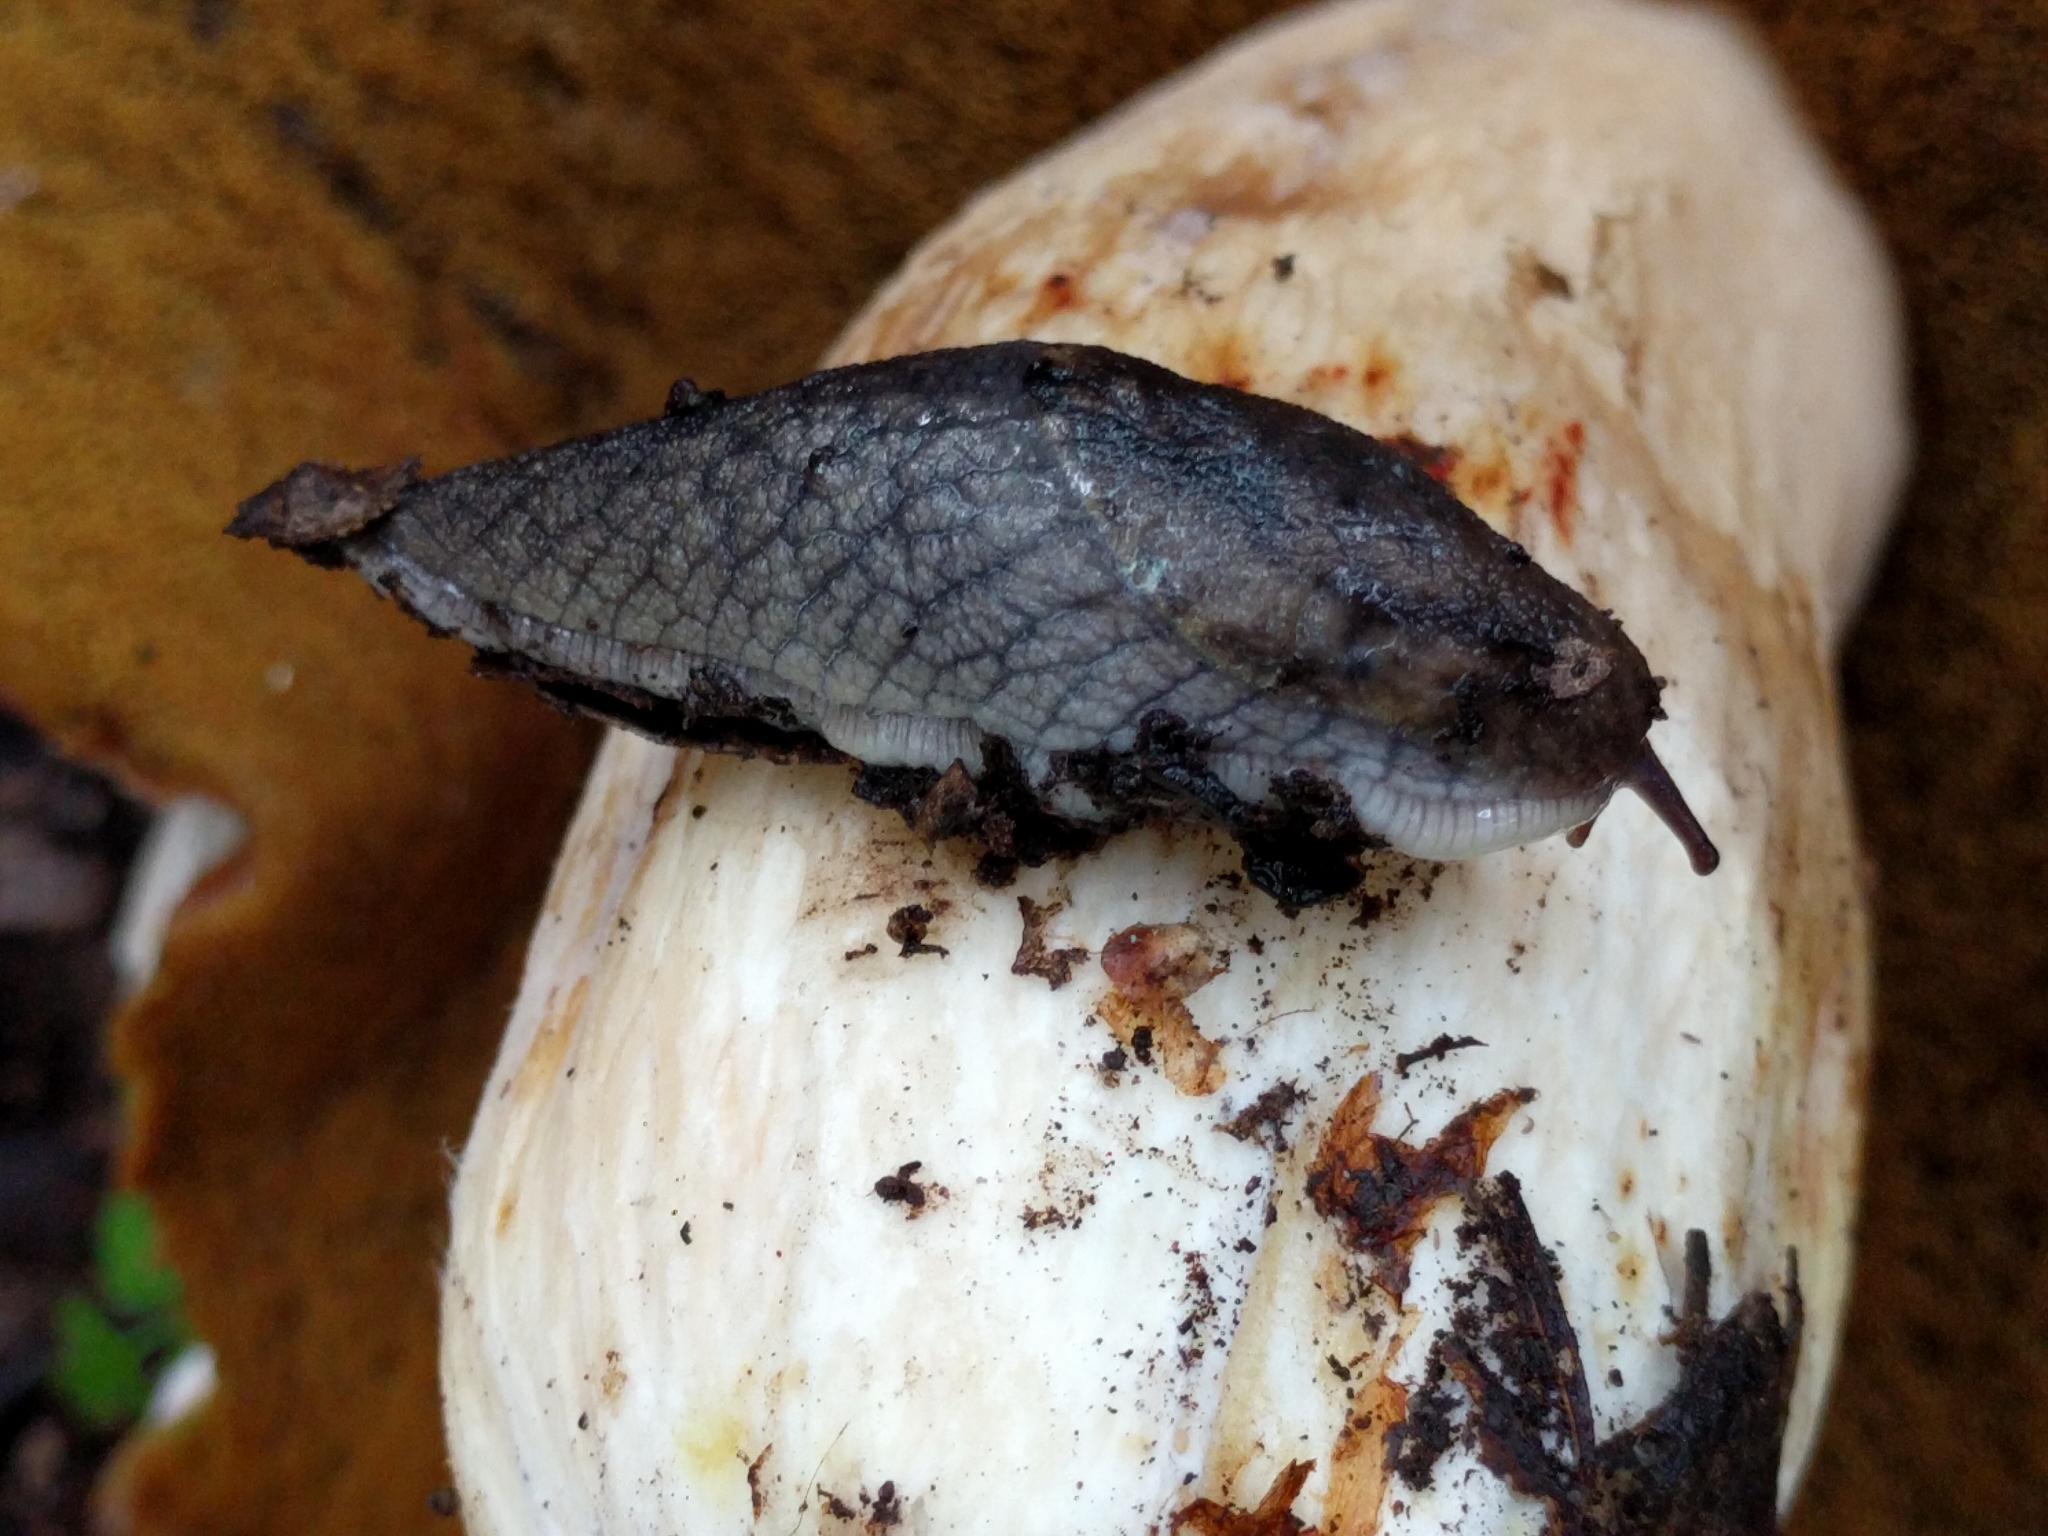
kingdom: Animalia
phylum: Mollusca
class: Gastropoda
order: Stylommatophora
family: Ariolimacidae
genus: Prophysaon
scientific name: Prophysaon andersonii
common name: Reticulate taildropper
